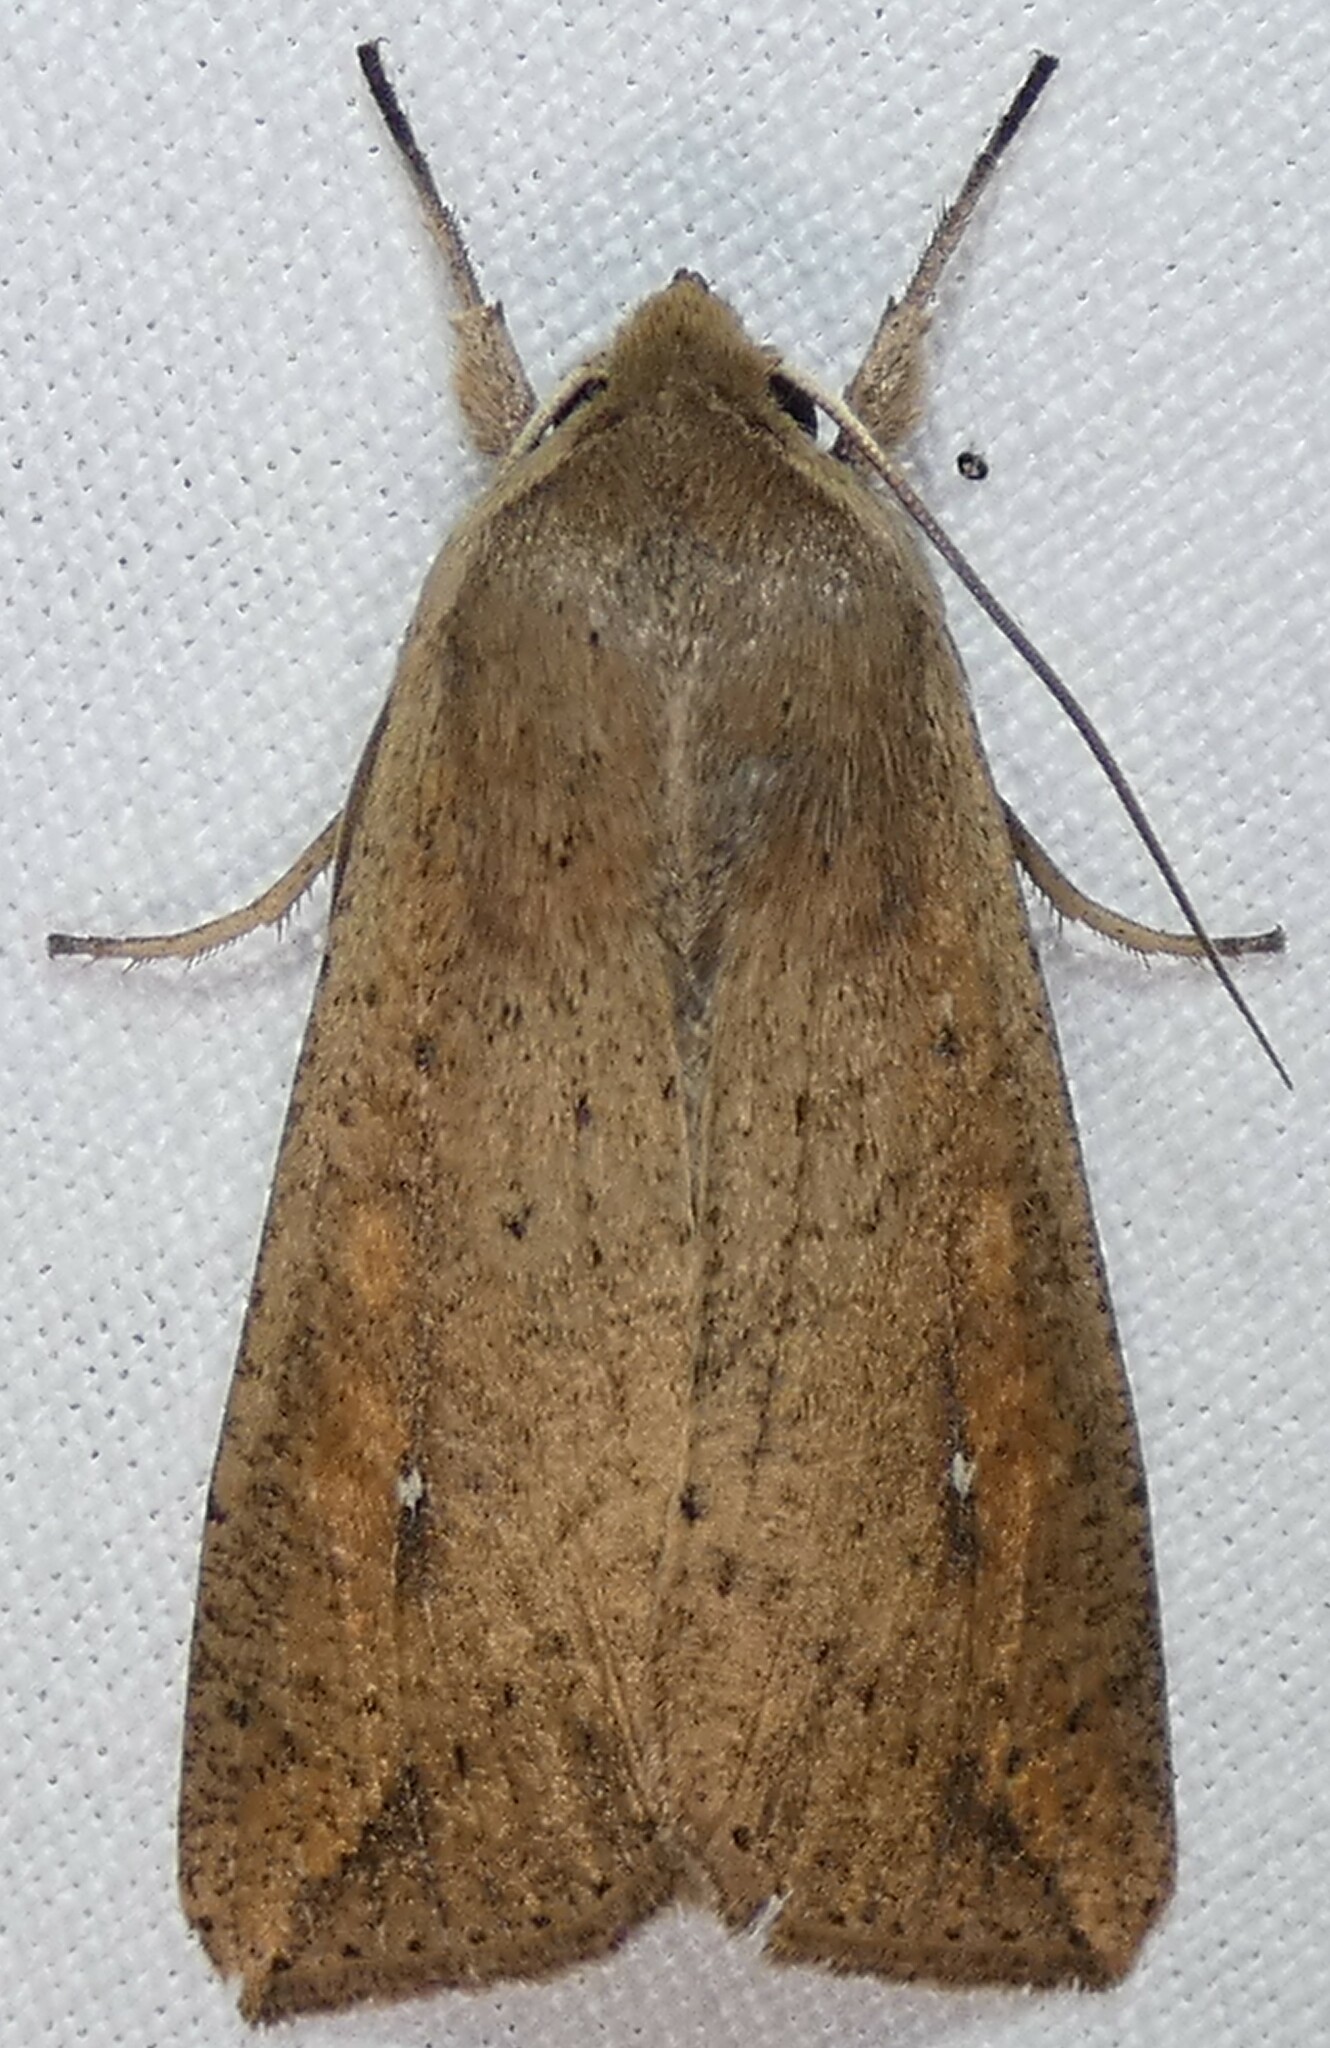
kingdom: Animalia
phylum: Arthropoda
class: Insecta
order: Lepidoptera
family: Noctuidae
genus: Mythimna
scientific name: Mythimna unipuncta
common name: White-speck
